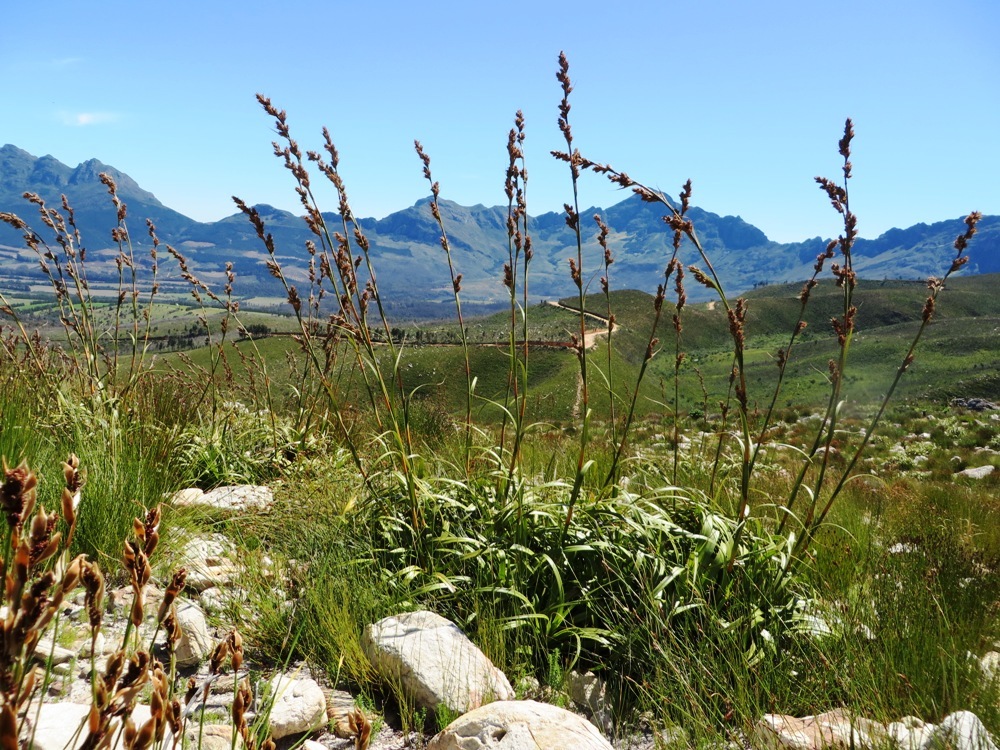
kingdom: Plantae
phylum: Tracheophyta
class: Liliopsida
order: Poales
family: Cyperaceae
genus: Tetraria
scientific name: Tetraria thermalis
